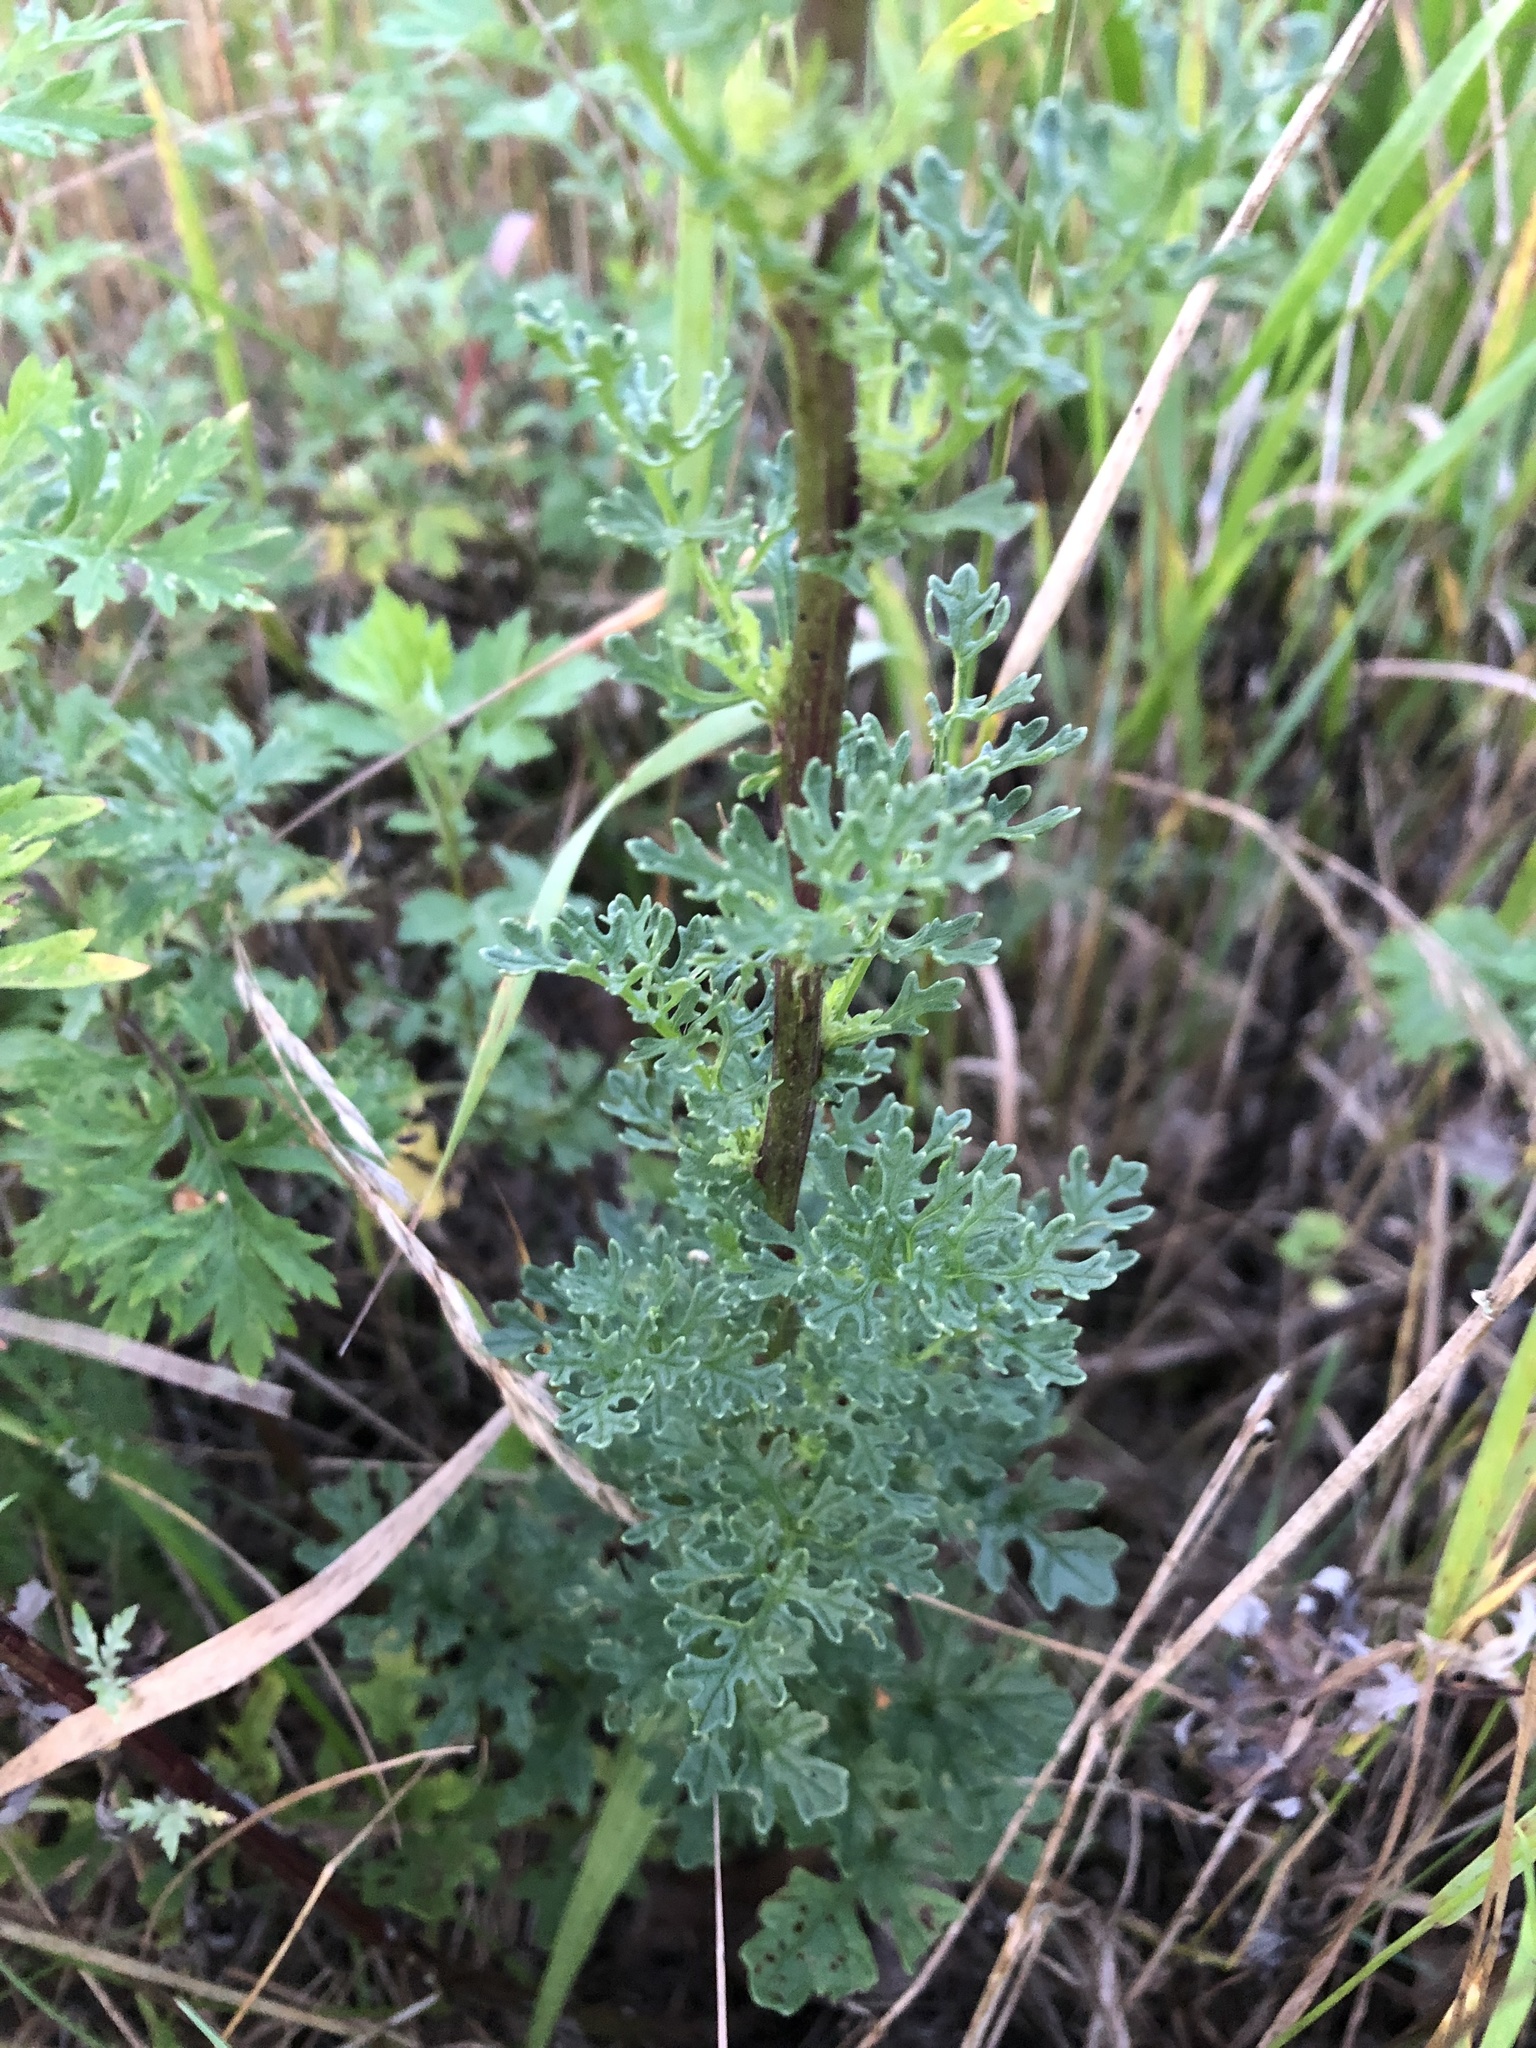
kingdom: Plantae
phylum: Tracheophyta
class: Magnoliopsida
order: Asterales
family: Asteraceae
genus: Jacobaea
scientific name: Jacobaea vulgaris
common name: Stinking willie
